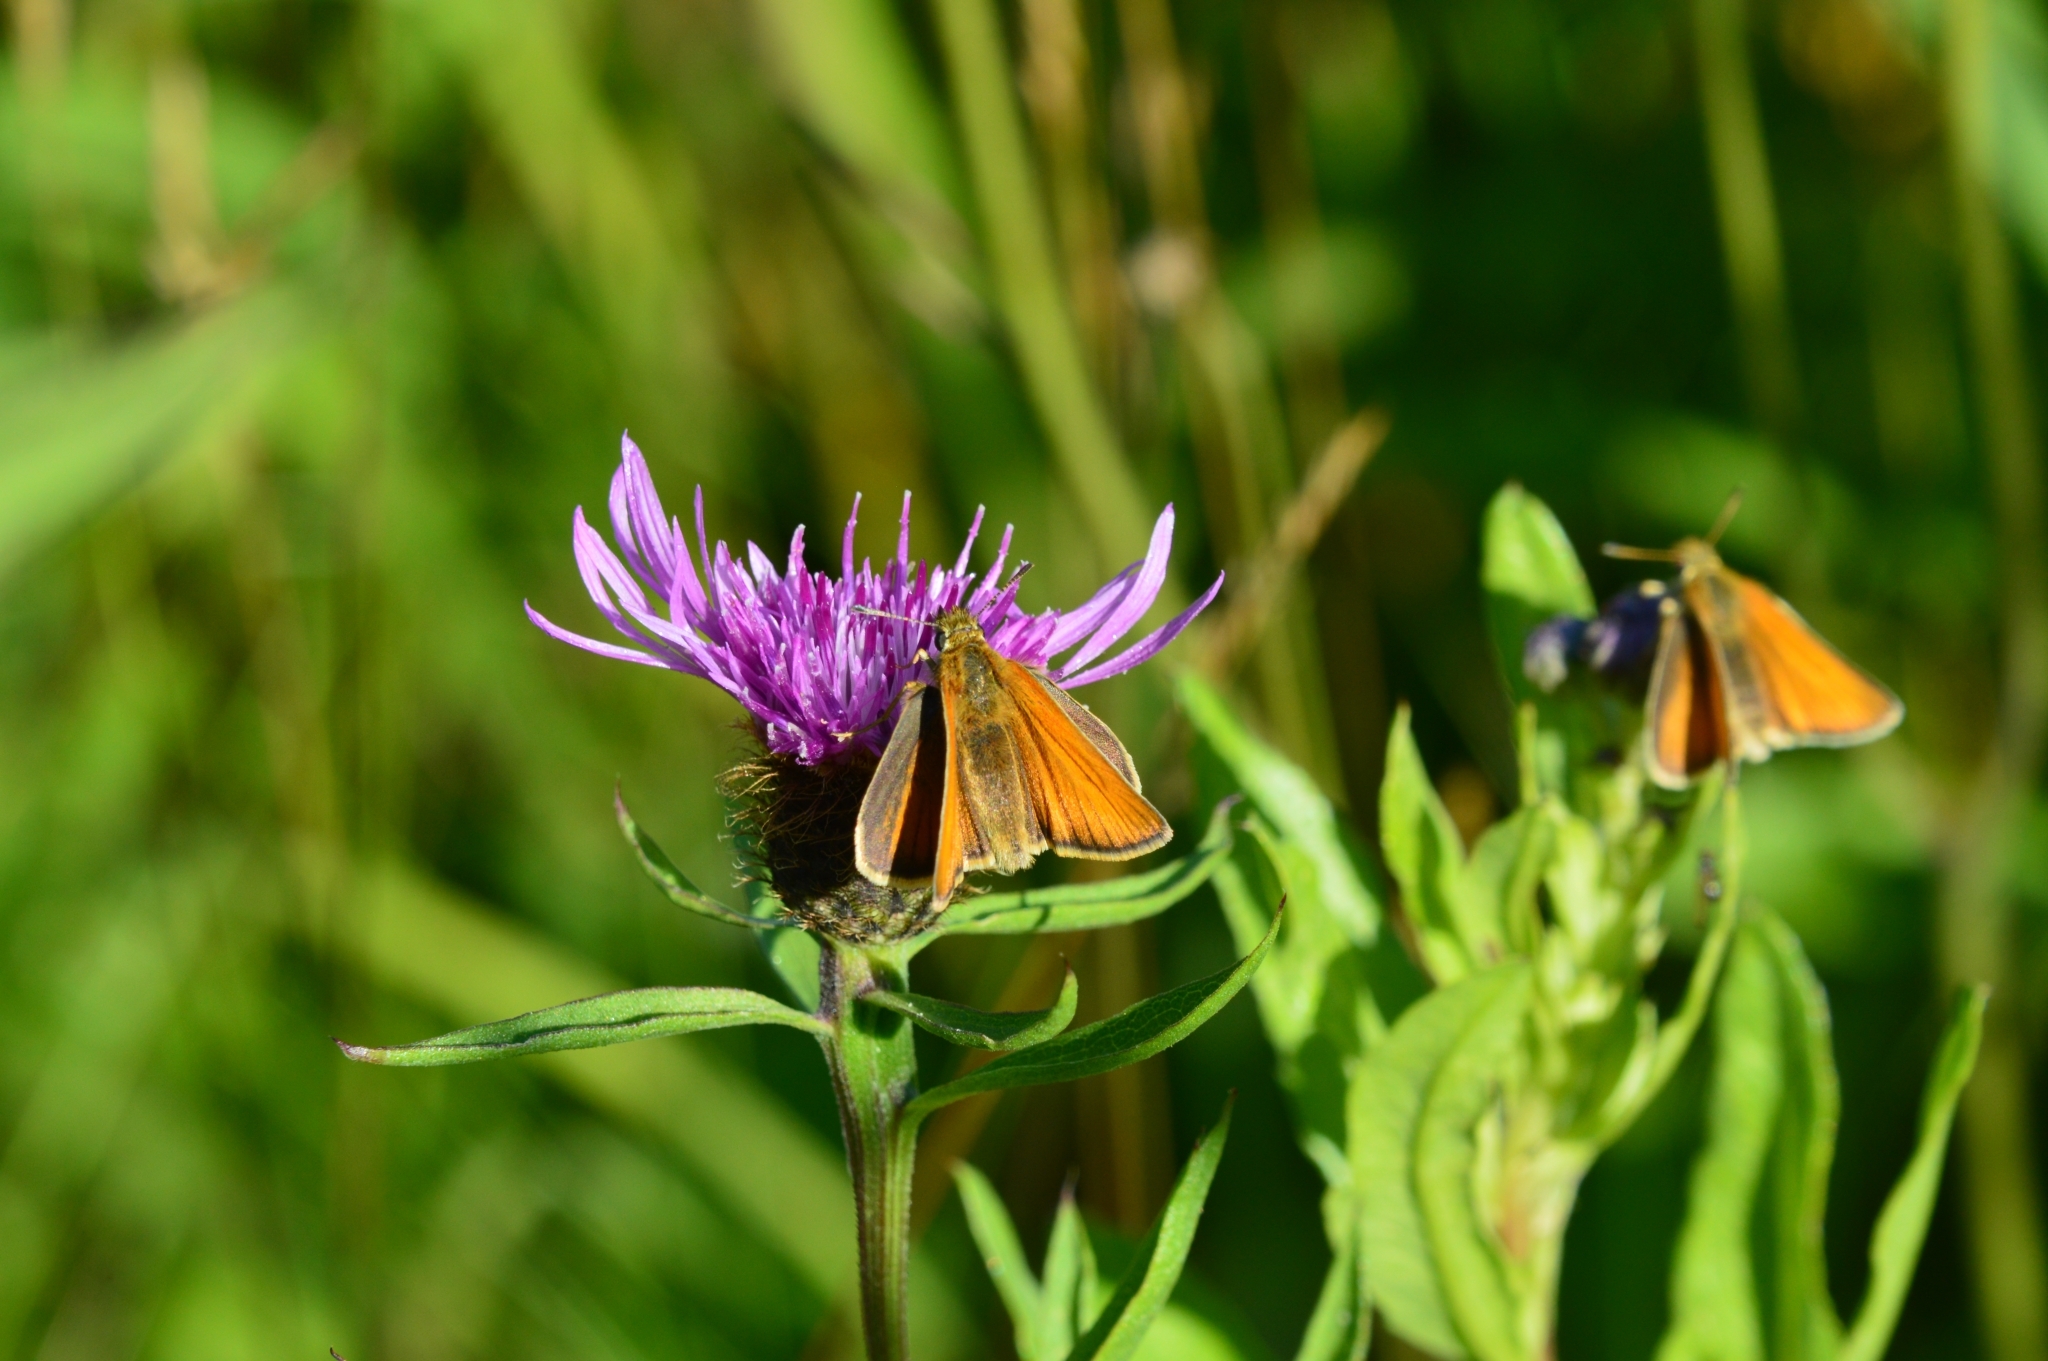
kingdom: Animalia
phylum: Arthropoda
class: Insecta
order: Lepidoptera
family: Hesperiidae
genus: Thymelicus
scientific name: Thymelicus lineola
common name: Essex skipper
